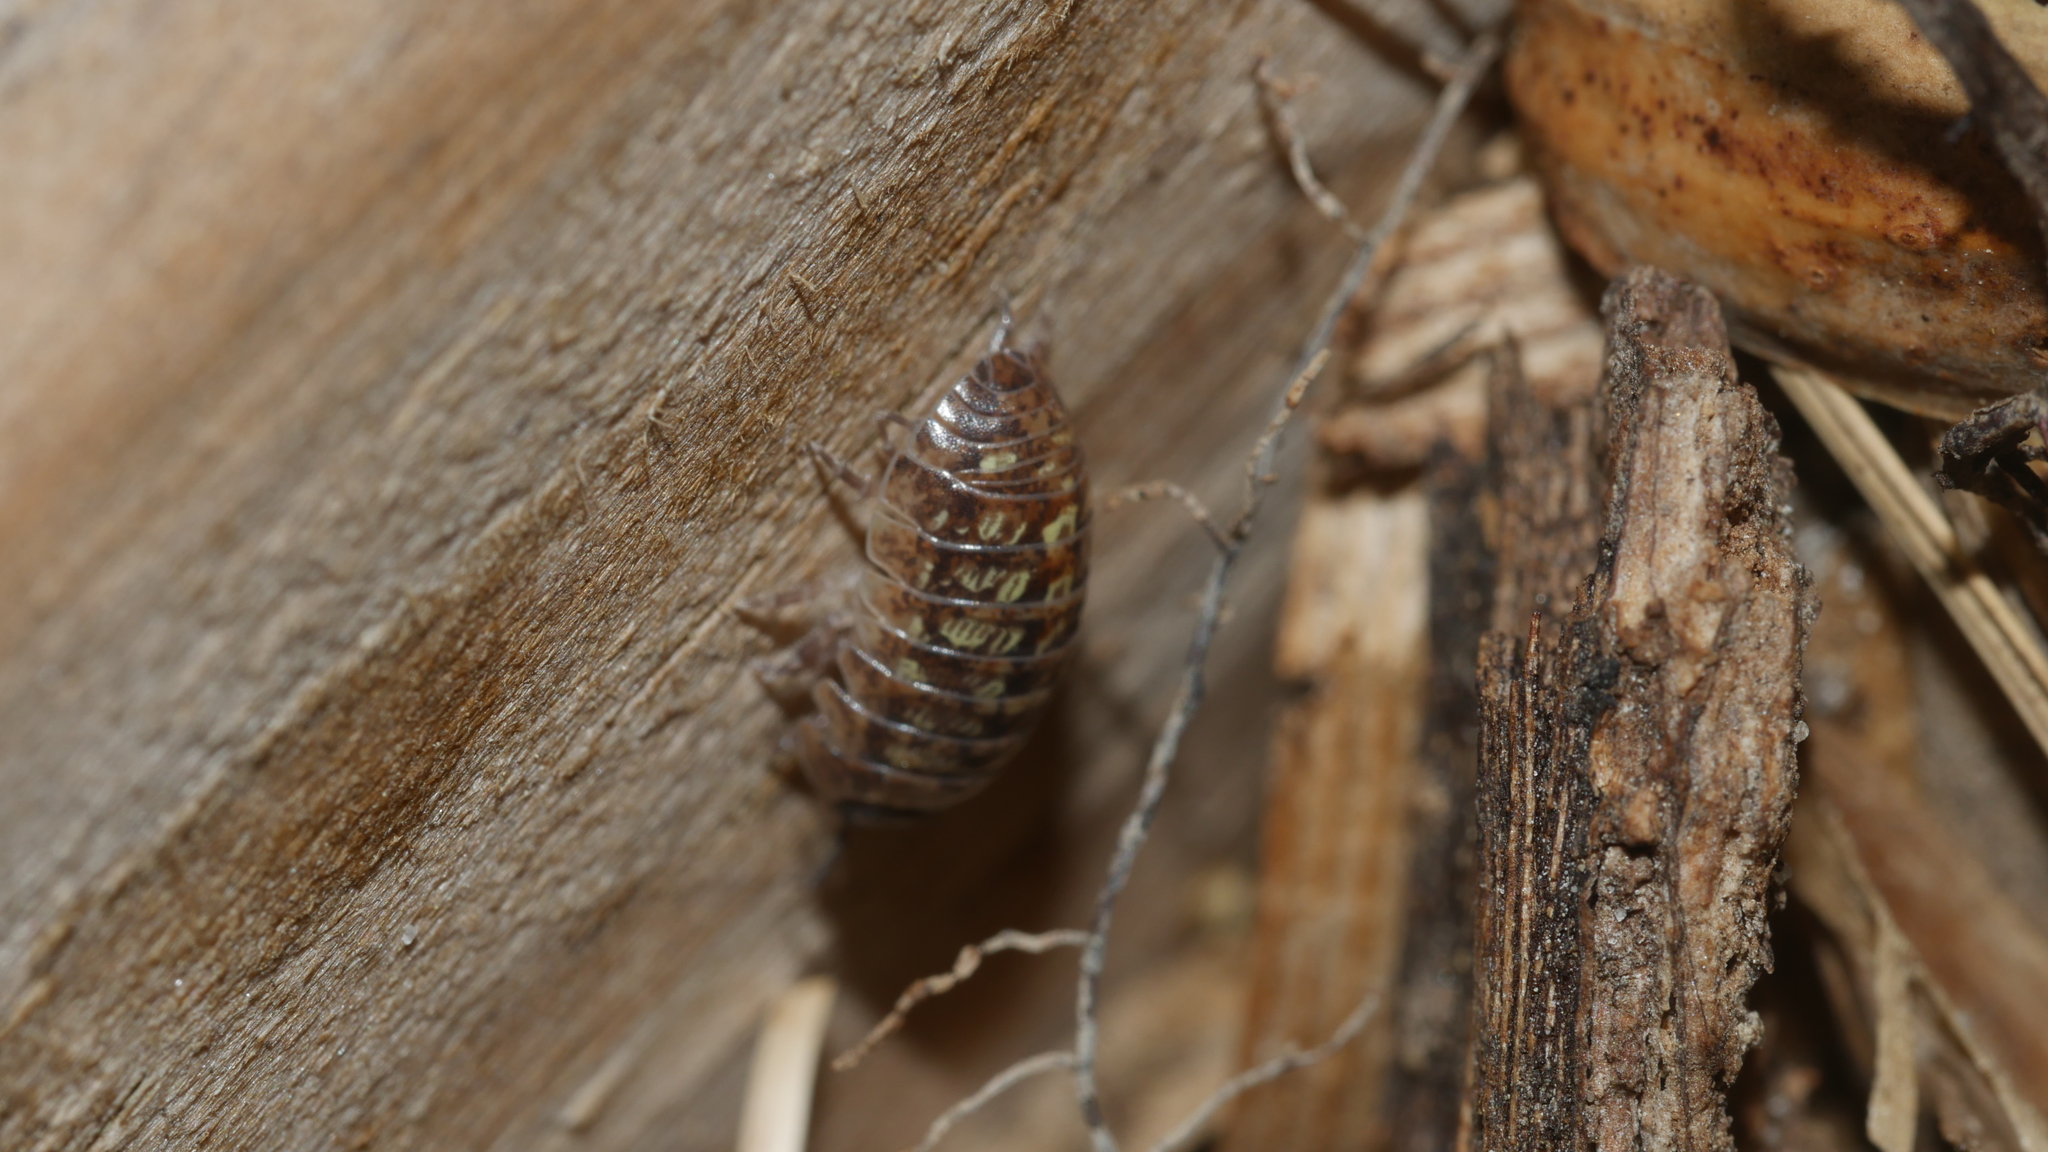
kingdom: Animalia
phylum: Arthropoda
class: Malacostraca
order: Isopoda
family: Armadillidiidae
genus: Armadillidium
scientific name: Armadillidium vulgare
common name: Common pill woodlouse
